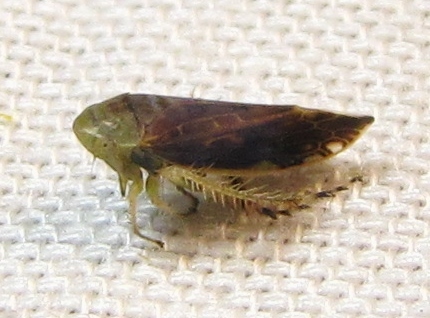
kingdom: Animalia
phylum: Arthropoda
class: Insecta
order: Hemiptera
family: Cicadellidae
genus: Acinopterus
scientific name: Acinopterus acuminatus
